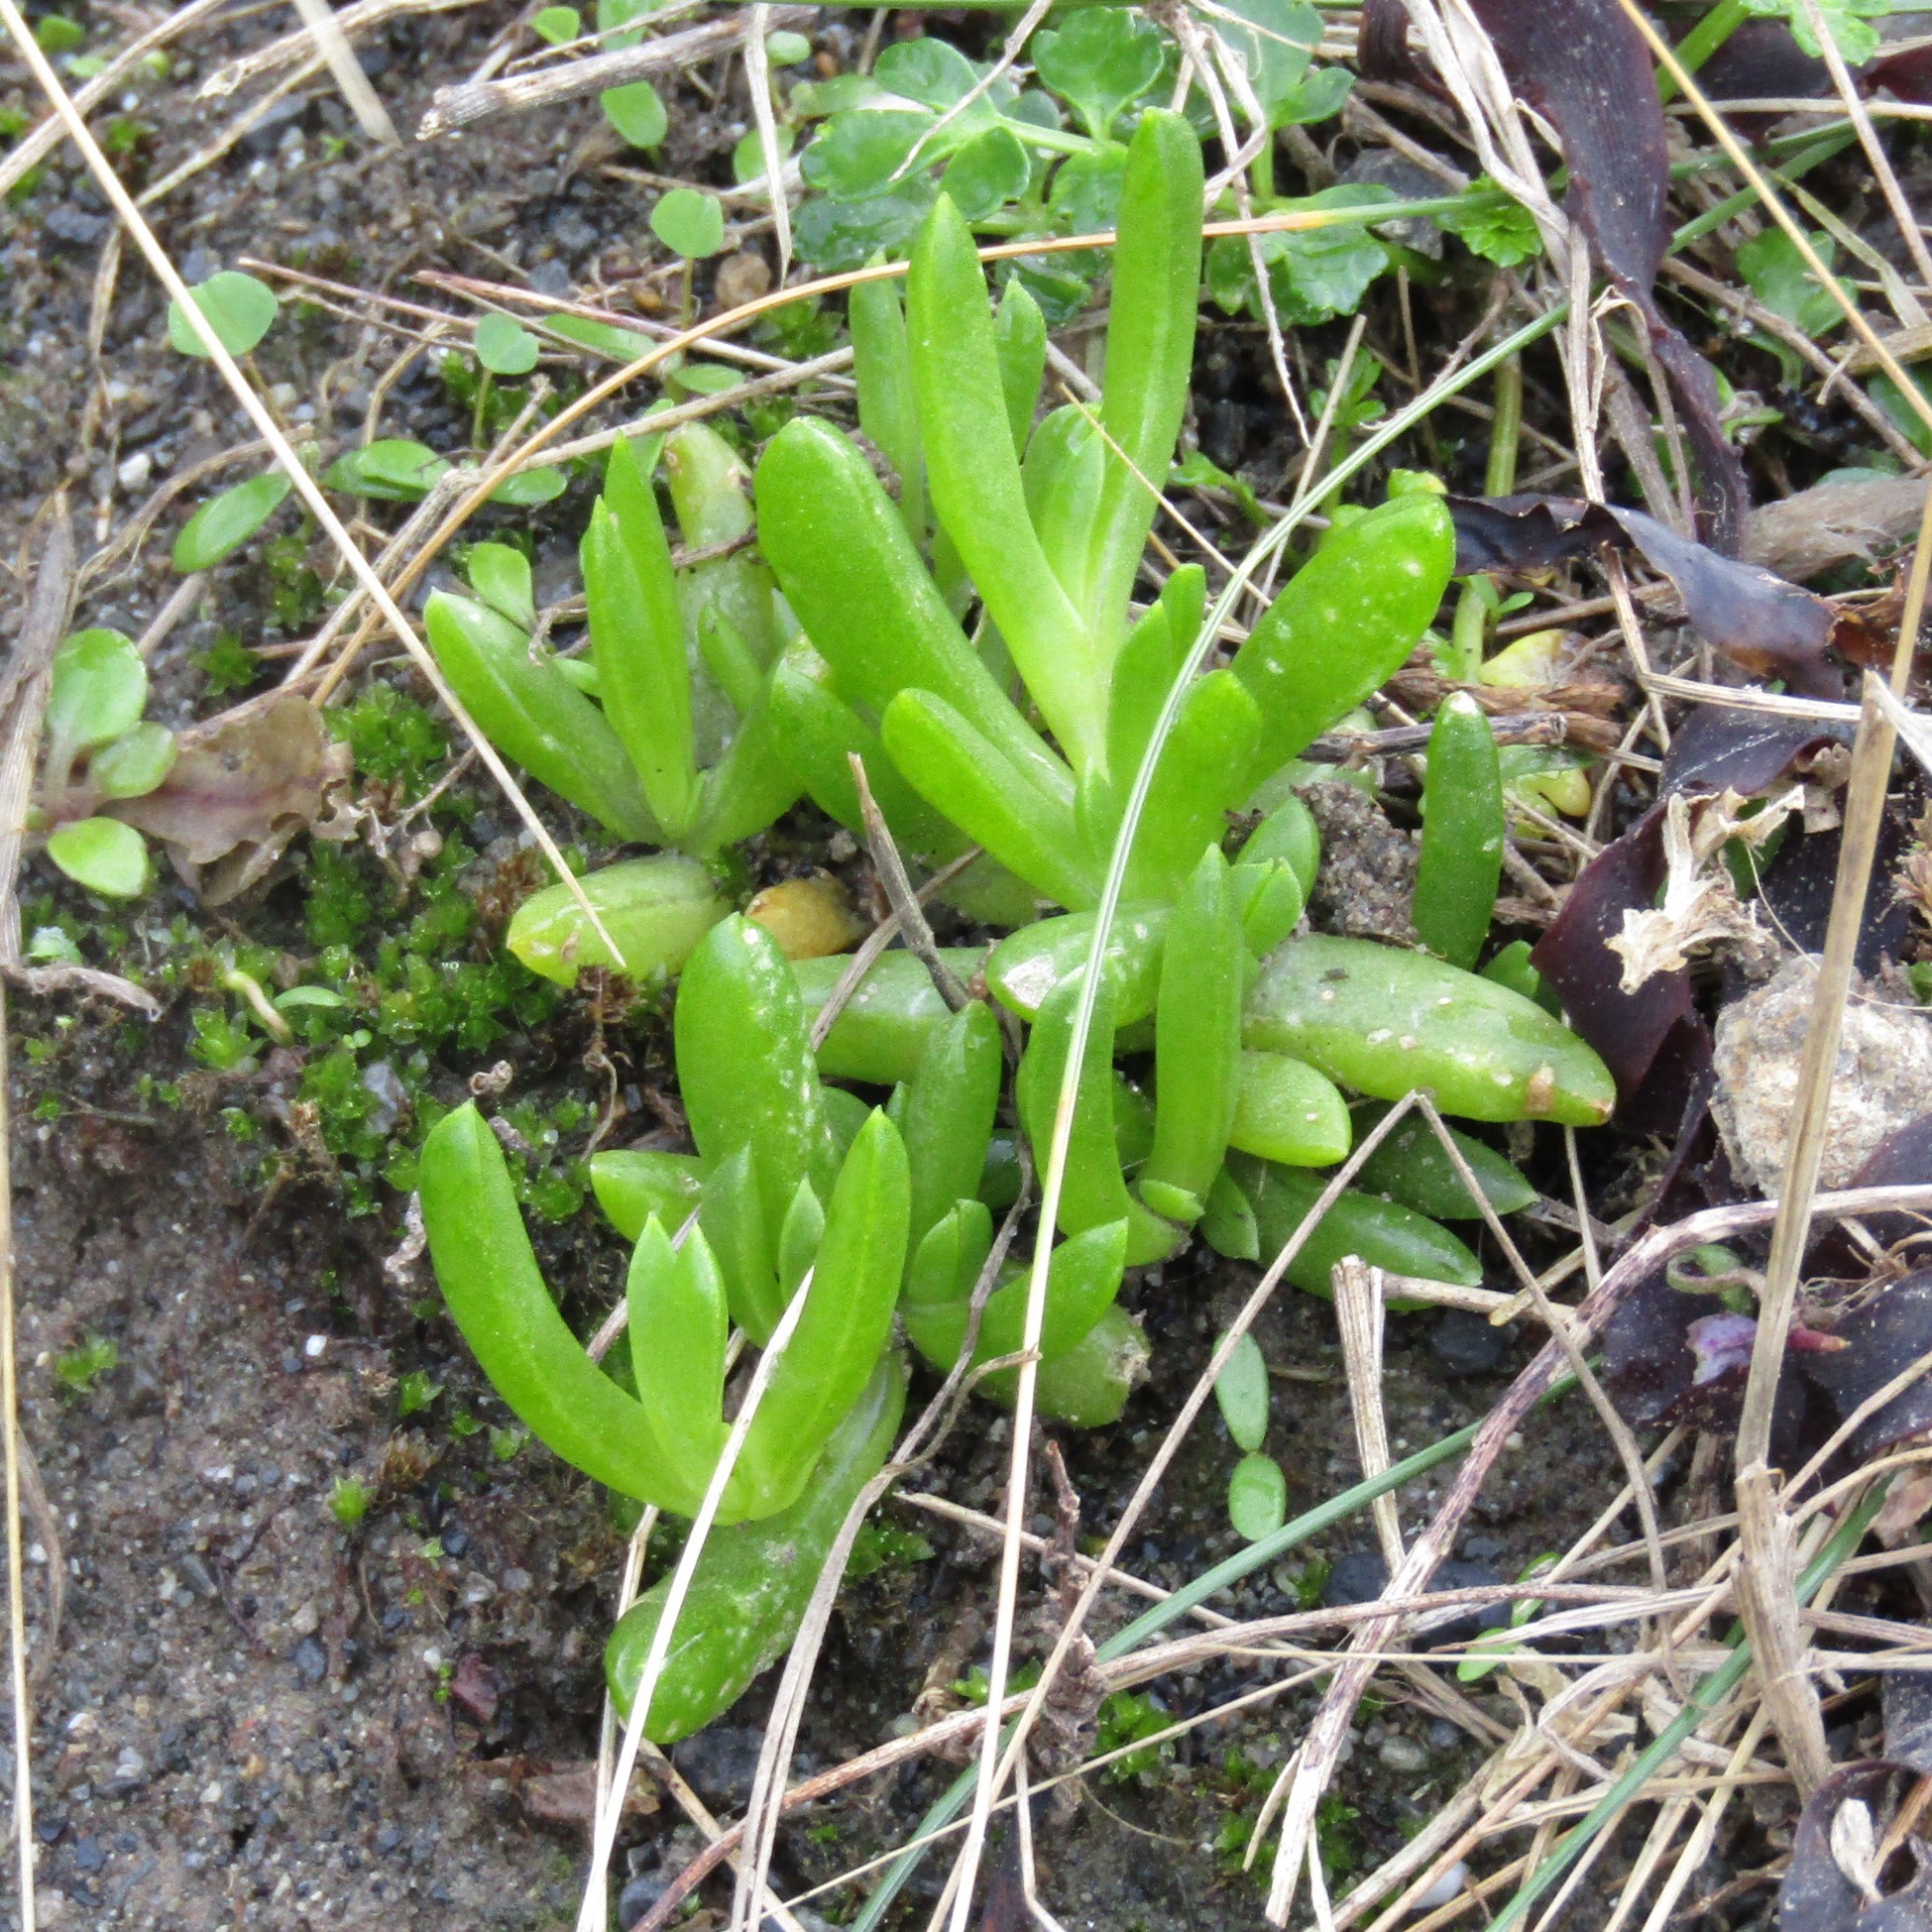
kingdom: Plantae
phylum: Tracheophyta
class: Magnoliopsida
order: Caryophyllales
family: Aizoaceae
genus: Disphyma
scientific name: Disphyma australe
